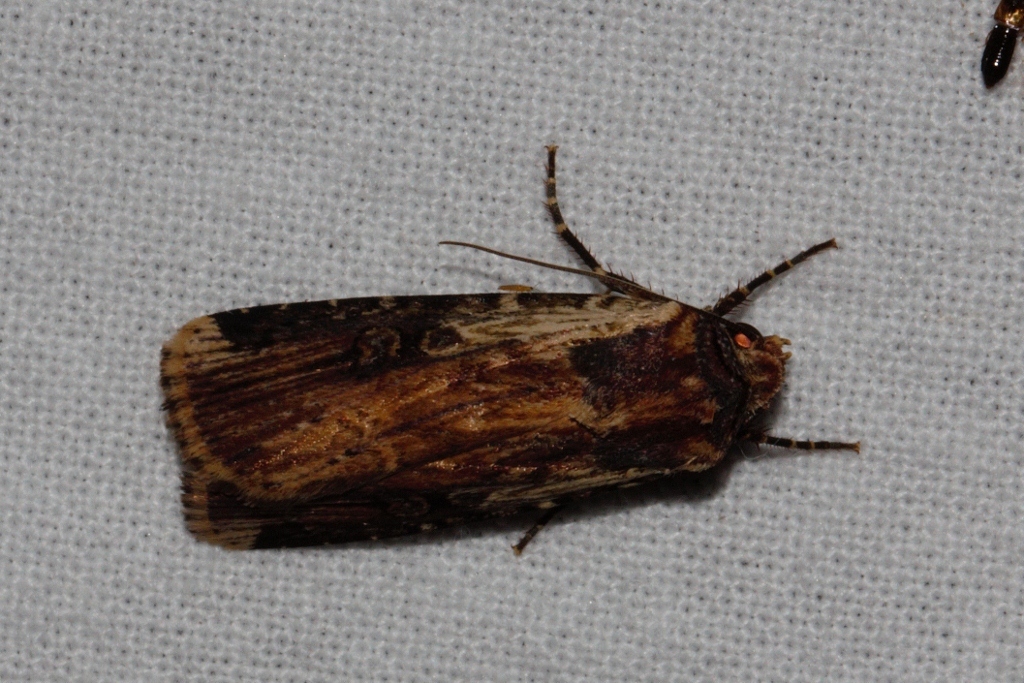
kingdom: Animalia
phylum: Arthropoda
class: Insecta
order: Lepidoptera
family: Noctuidae
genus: Amazonides
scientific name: Amazonides epipyria
